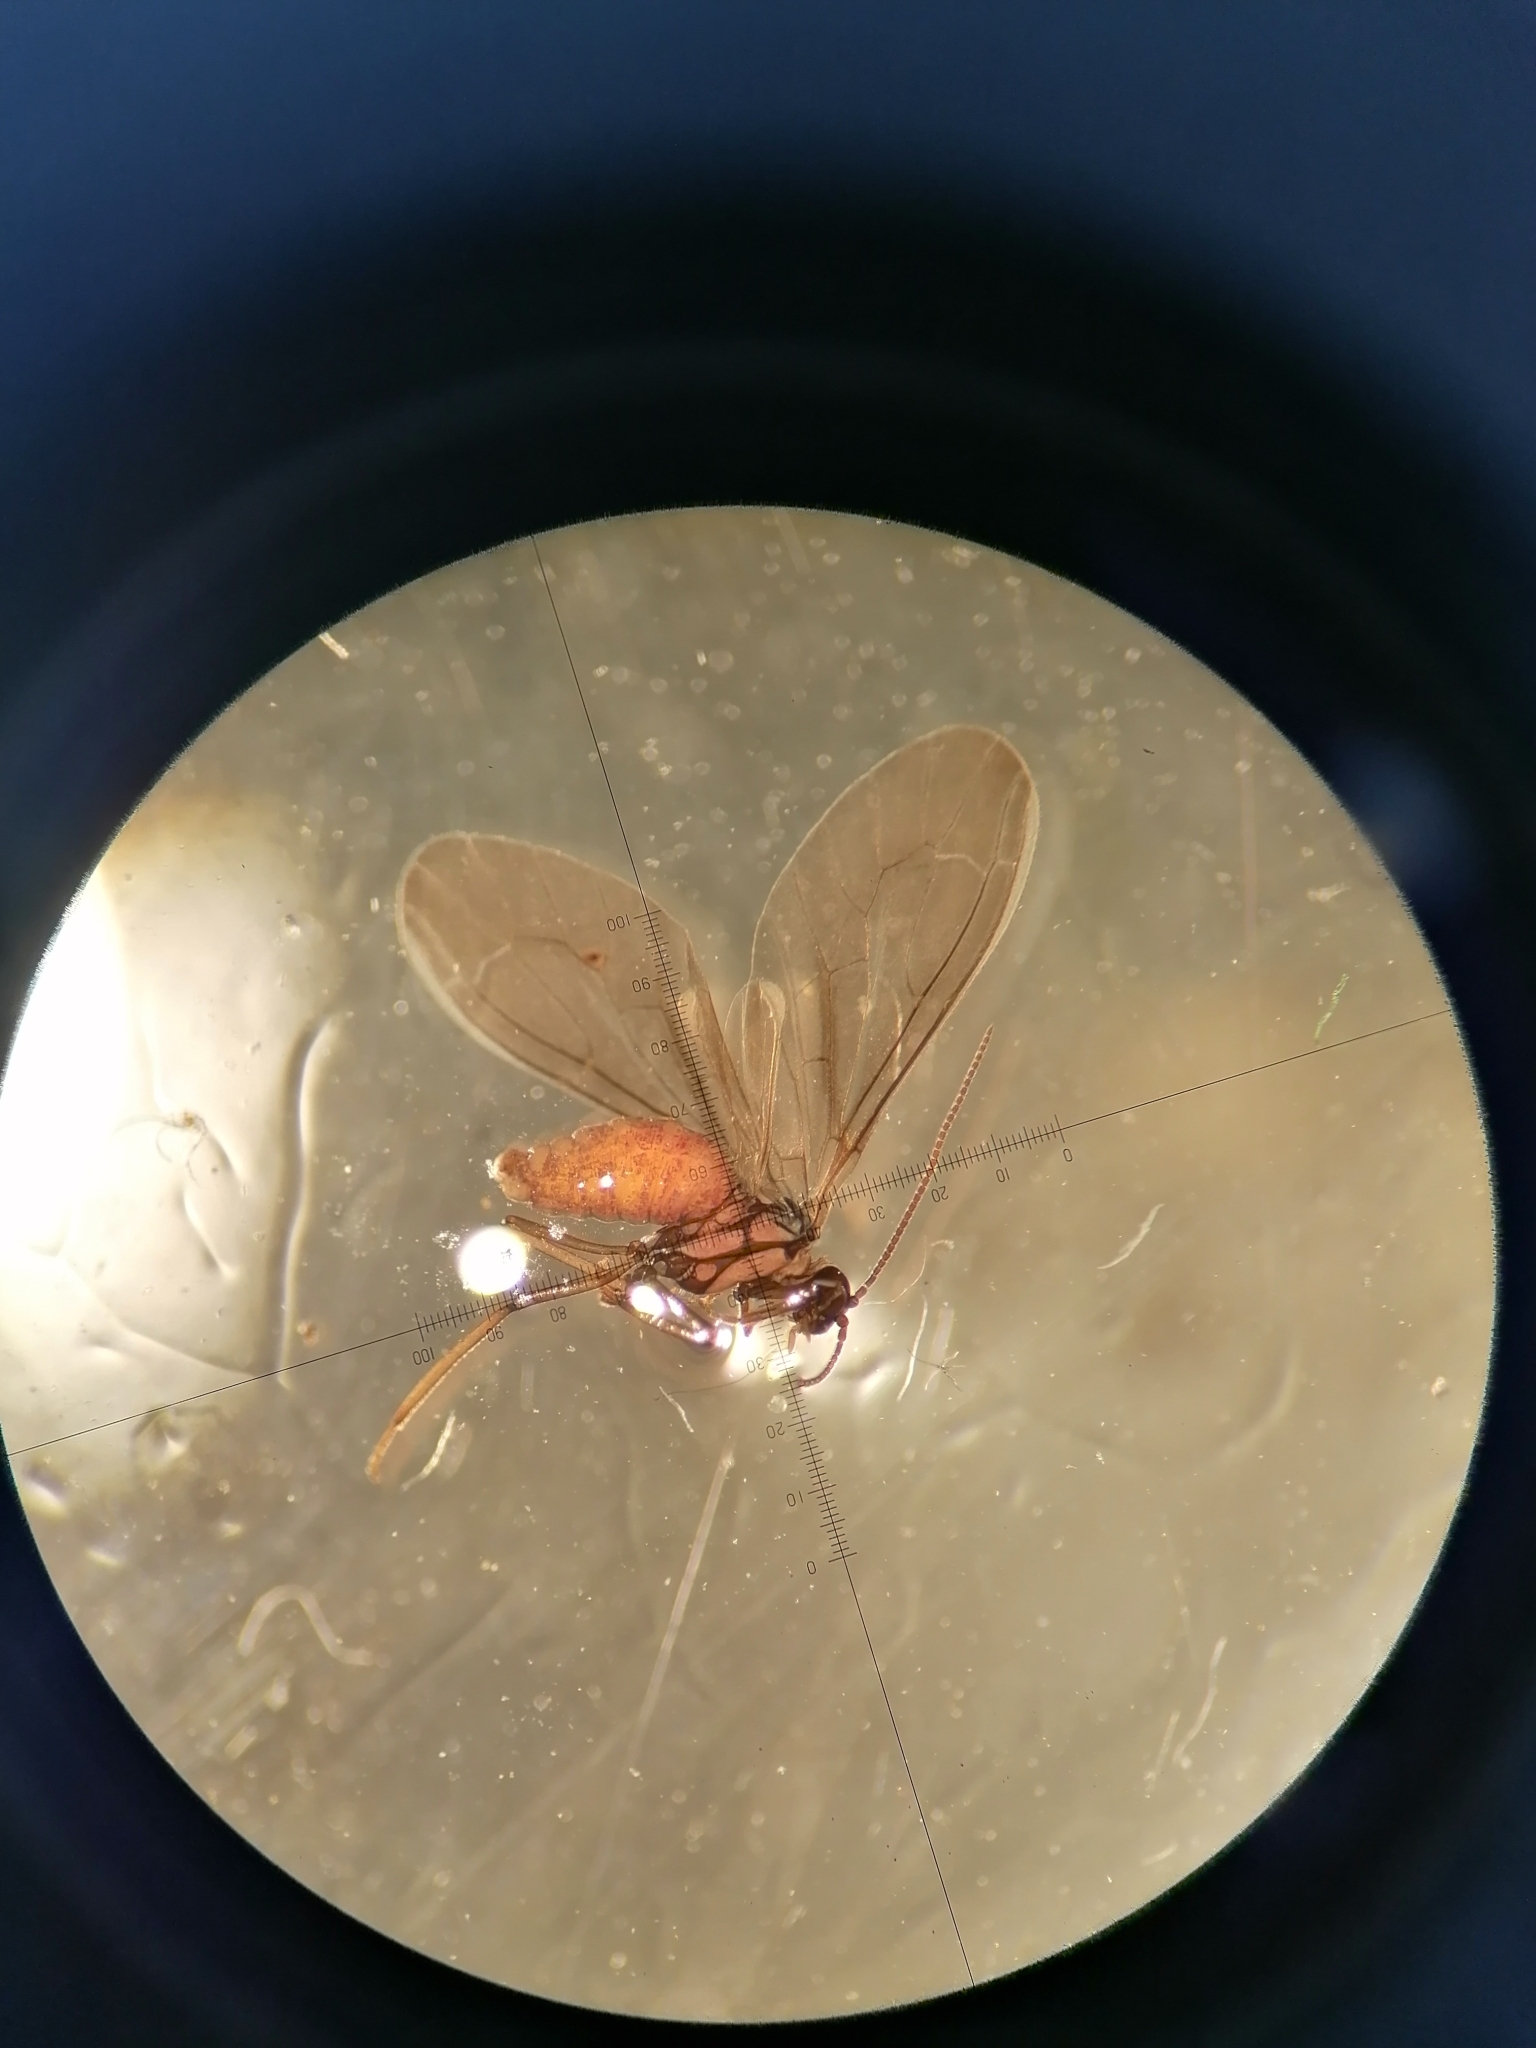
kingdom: Animalia
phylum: Arthropoda
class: Insecta
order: Neuroptera
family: Coniopterygidae
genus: Conwentzia
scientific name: Conwentzia pineticola
